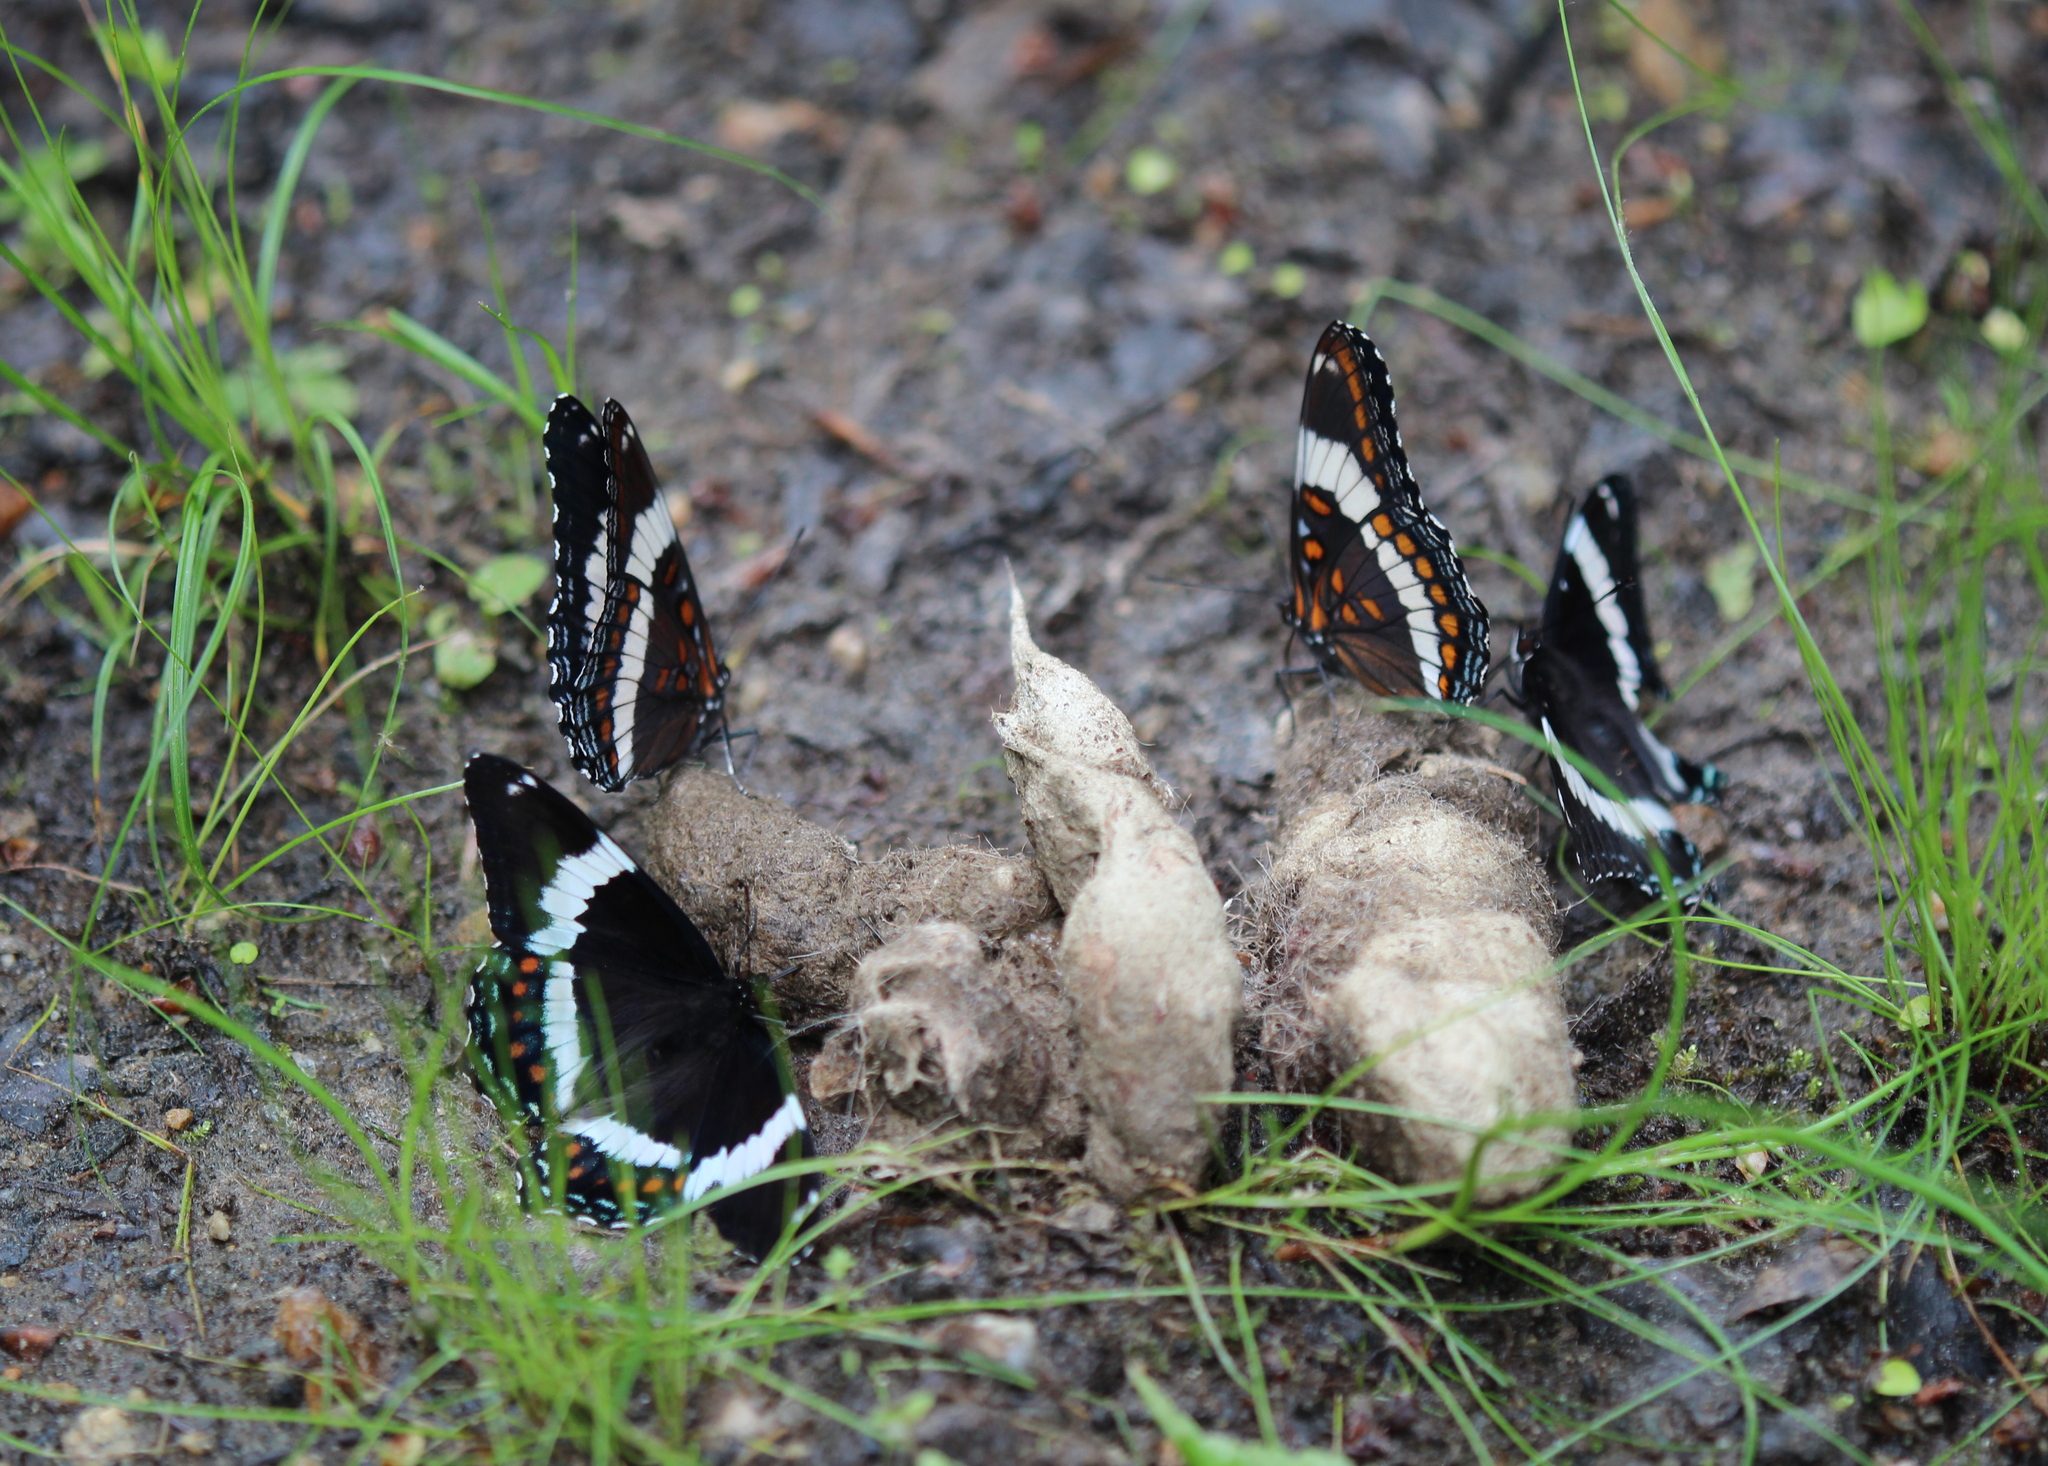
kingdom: Animalia
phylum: Arthropoda
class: Insecta
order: Lepidoptera
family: Nymphalidae
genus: Limenitis
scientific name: Limenitis arthemis
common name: Red-spotted admiral
